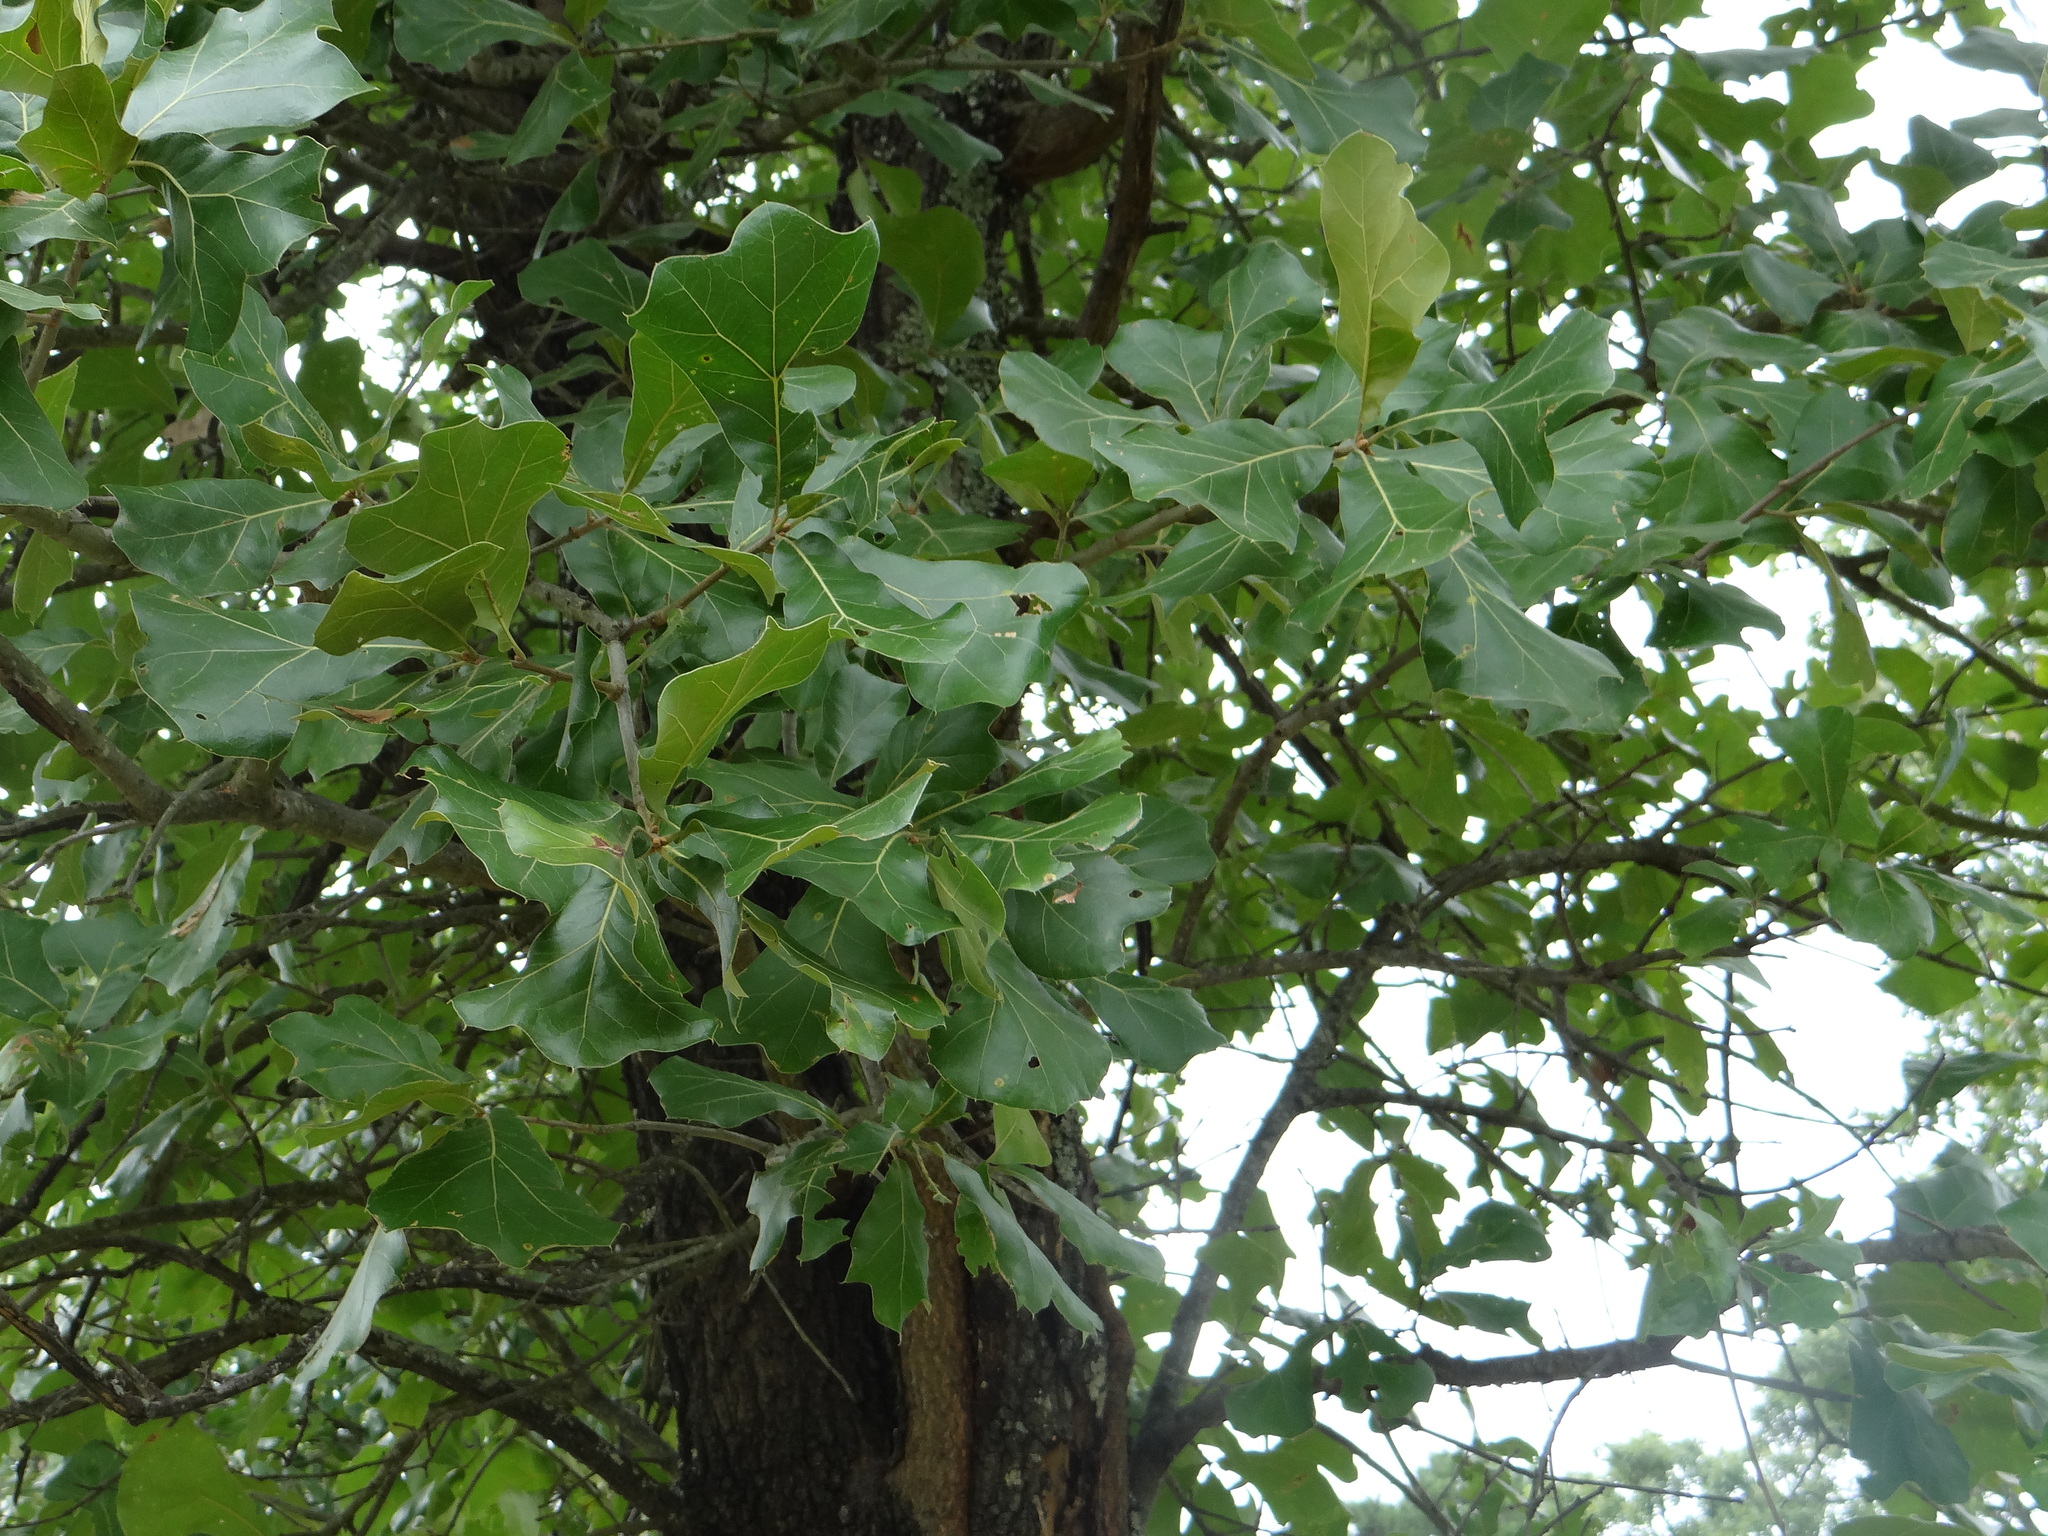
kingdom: Plantae
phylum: Tracheophyta
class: Magnoliopsida
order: Fagales
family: Fagaceae
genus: Quercus
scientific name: Quercus marilandica
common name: Blackjack oak
